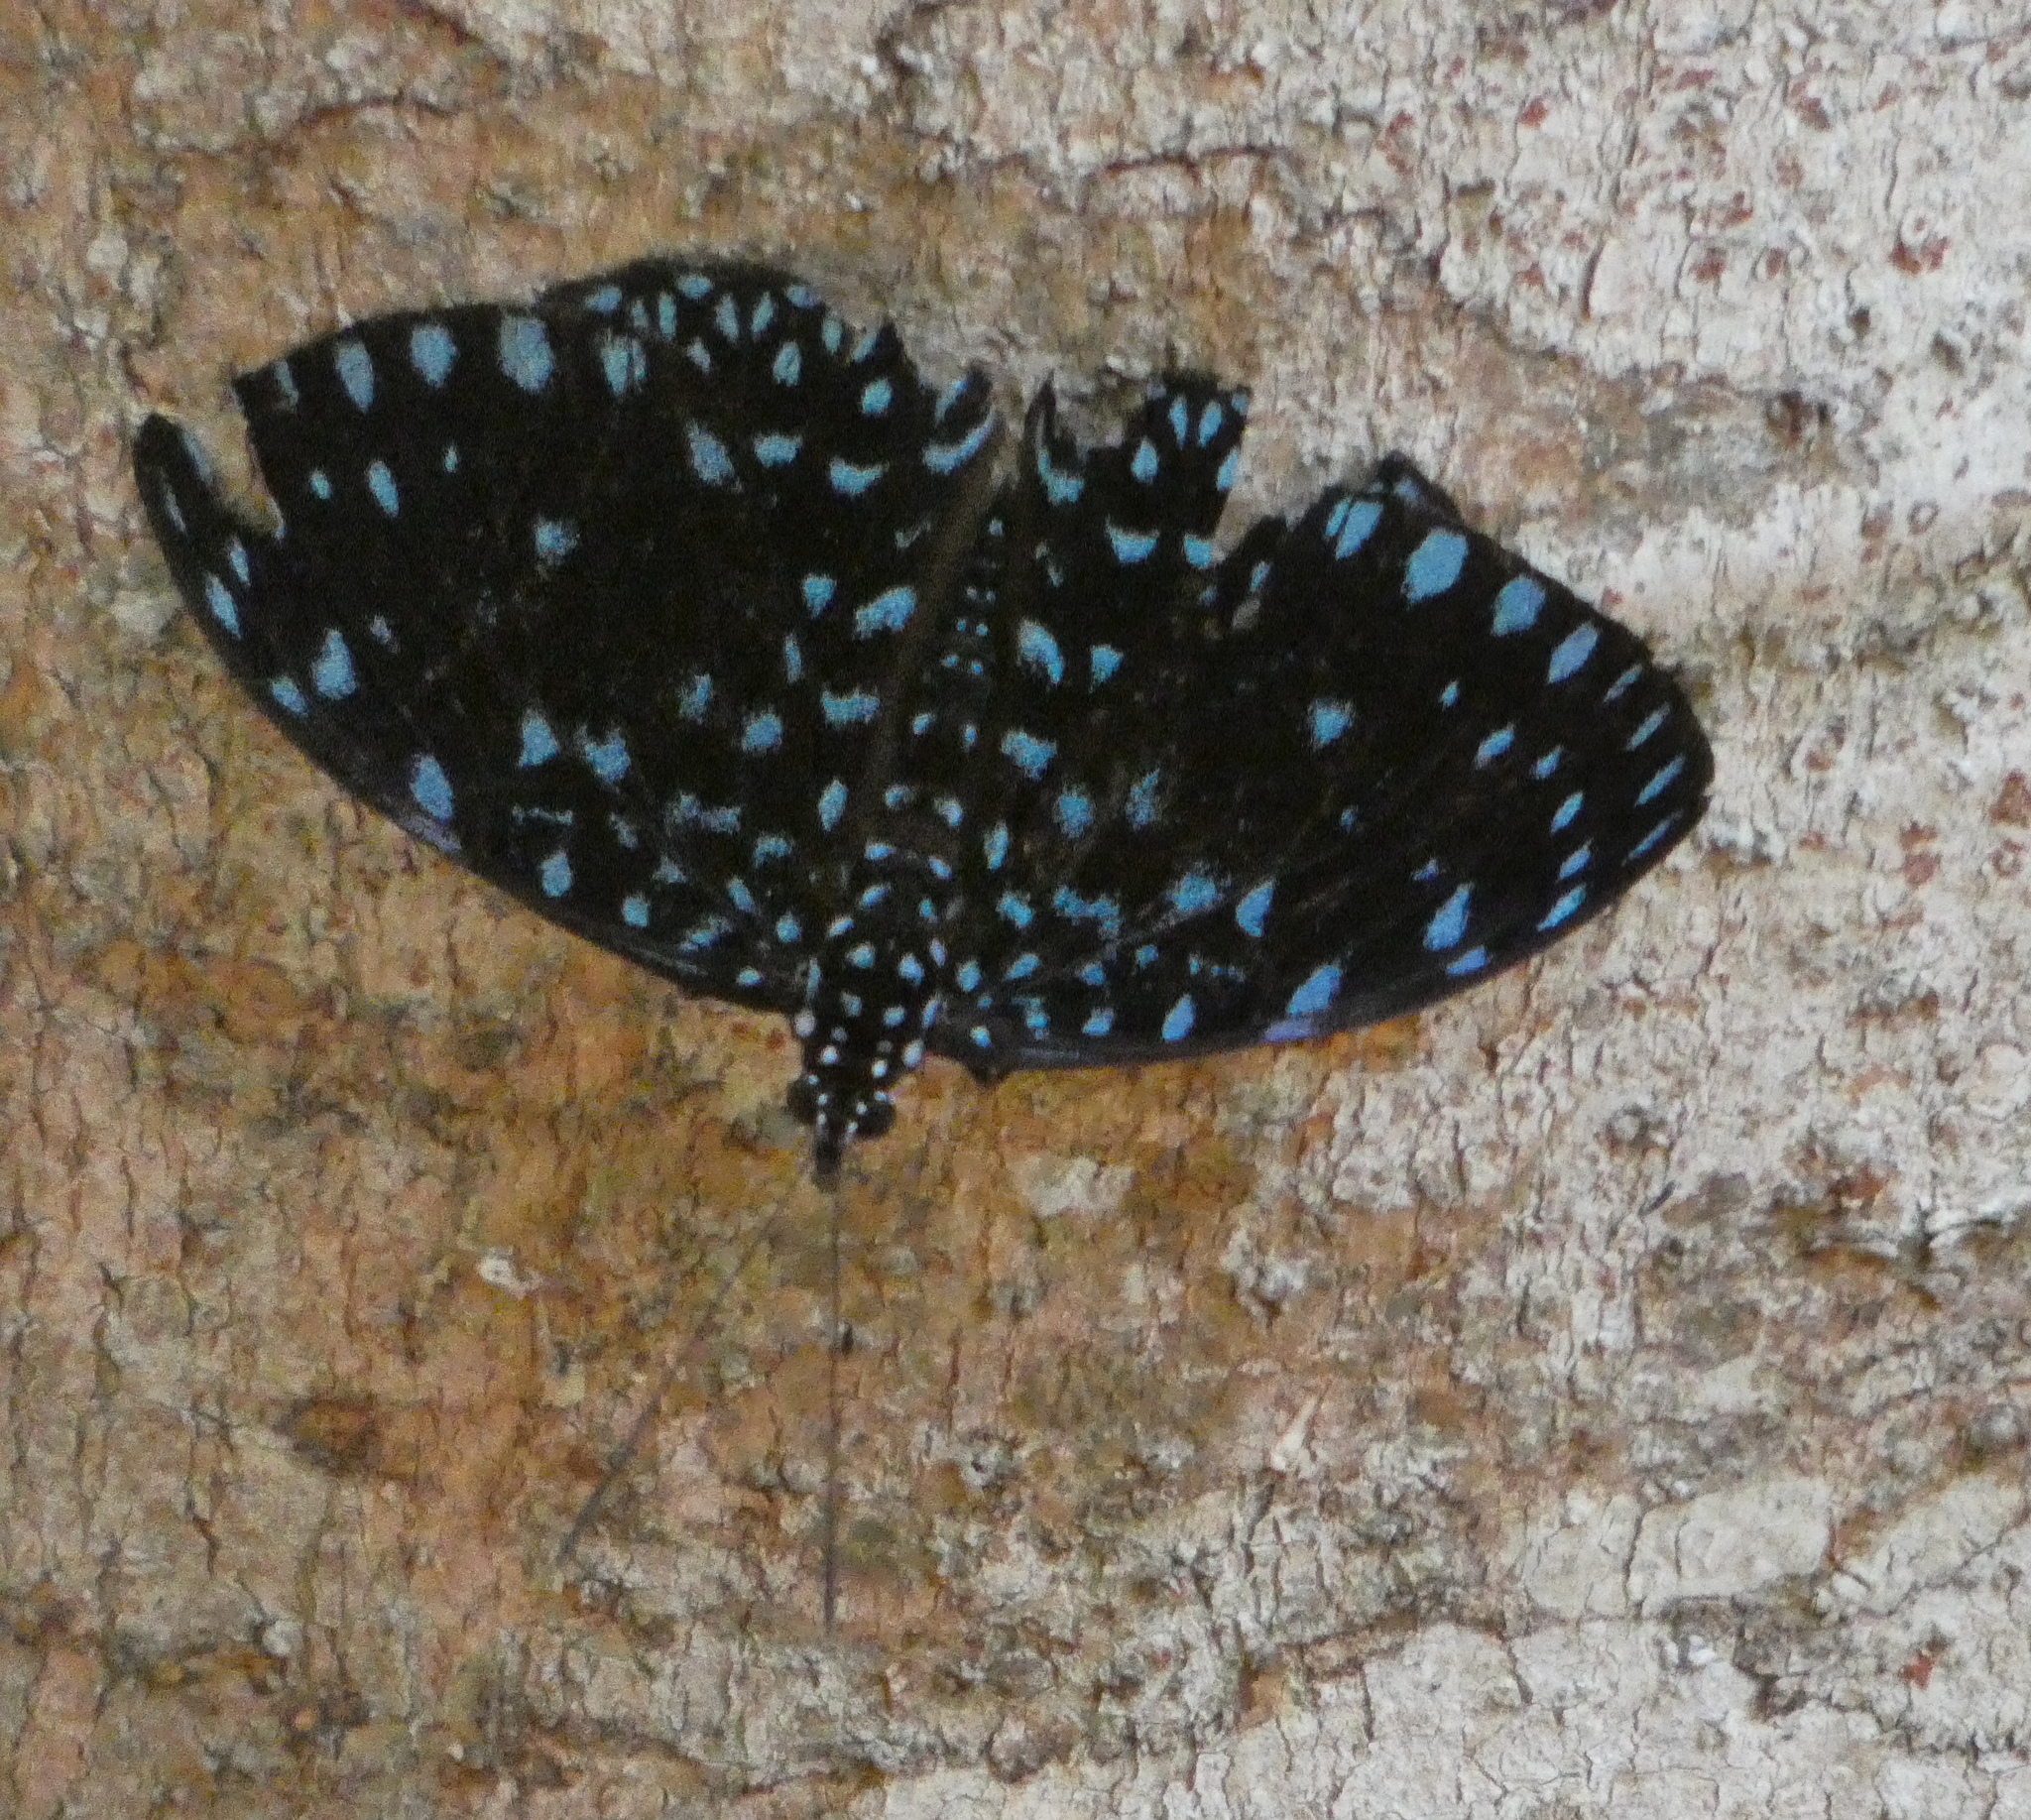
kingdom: Animalia
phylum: Arthropoda
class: Insecta
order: Lepidoptera
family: Nymphalidae
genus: Hamadryas
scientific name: Hamadryas laodamia
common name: Starry night cracker
